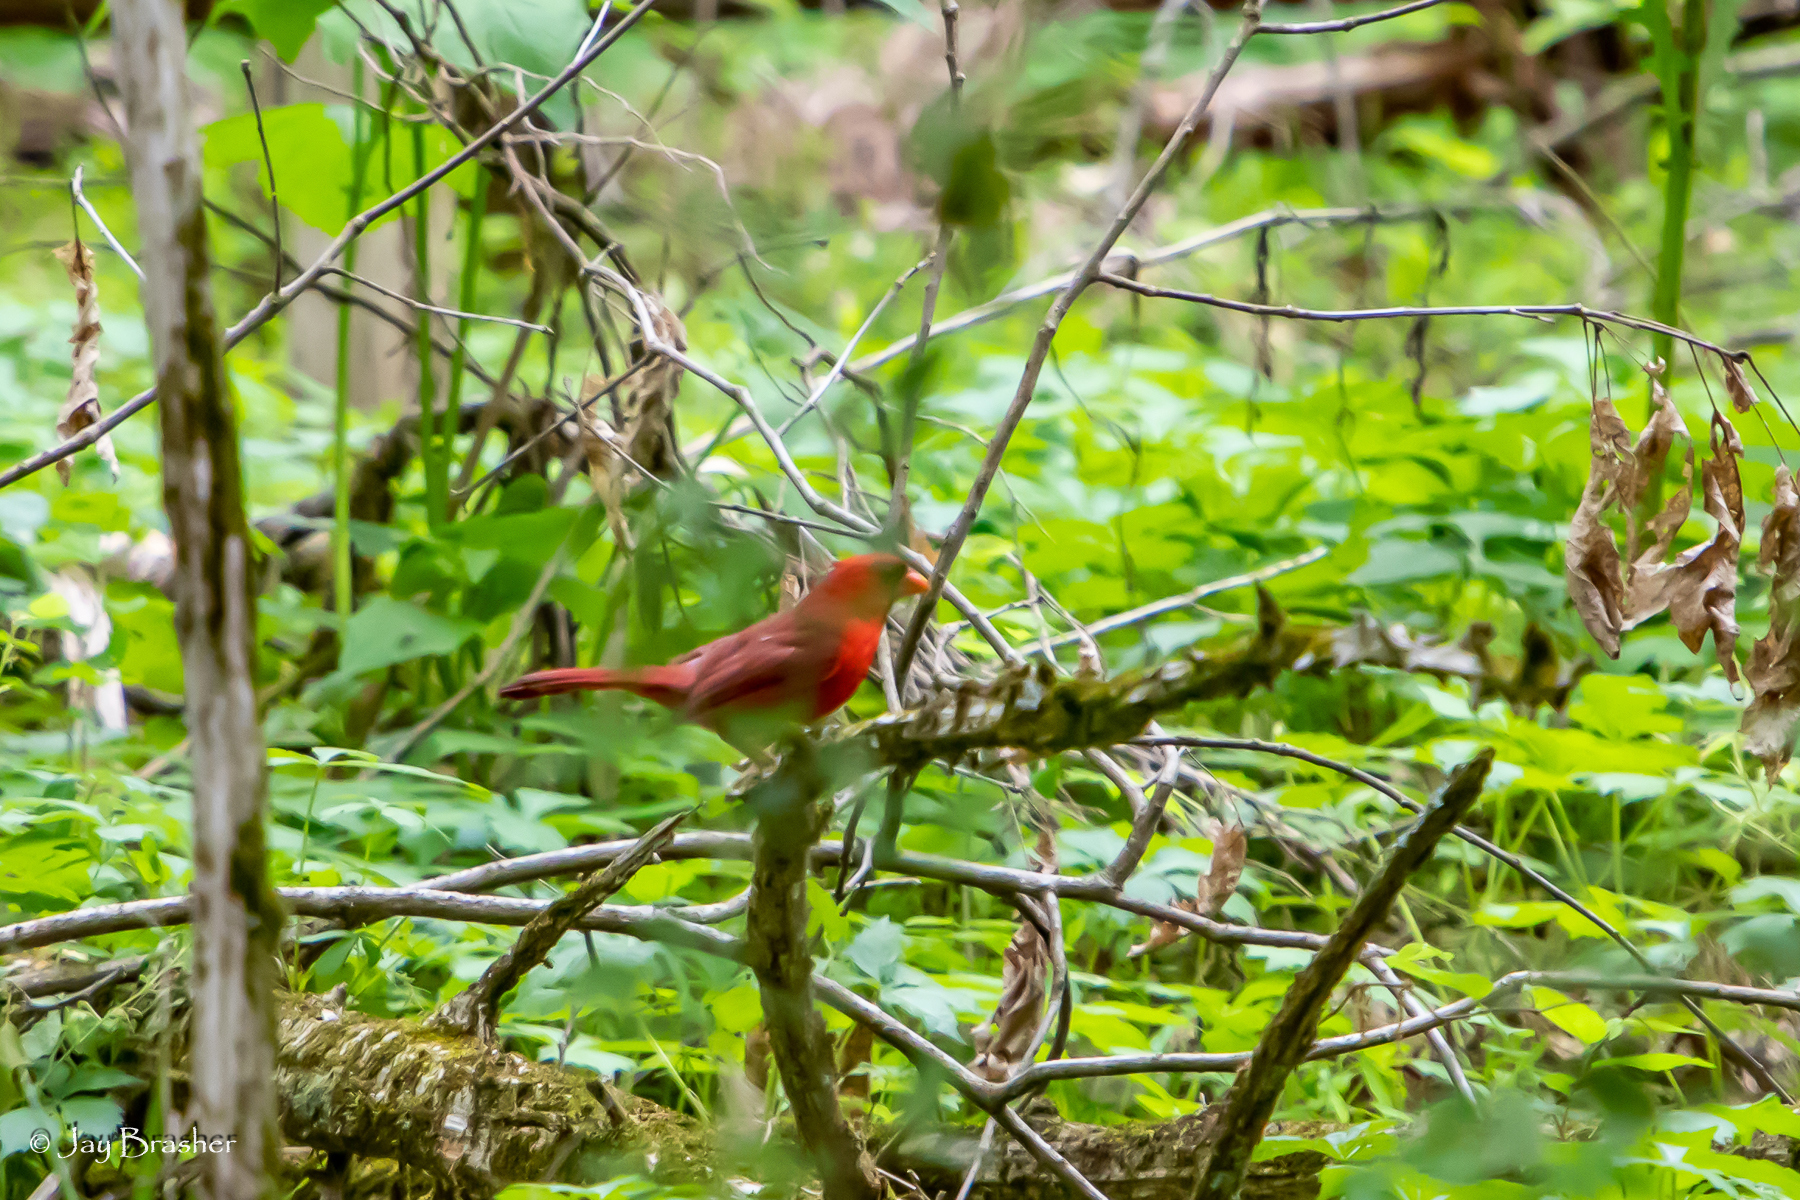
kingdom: Animalia
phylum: Chordata
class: Aves
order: Passeriformes
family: Cardinalidae
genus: Cardinalis
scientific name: Cardinalis cardinalis
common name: Northern cardinal
